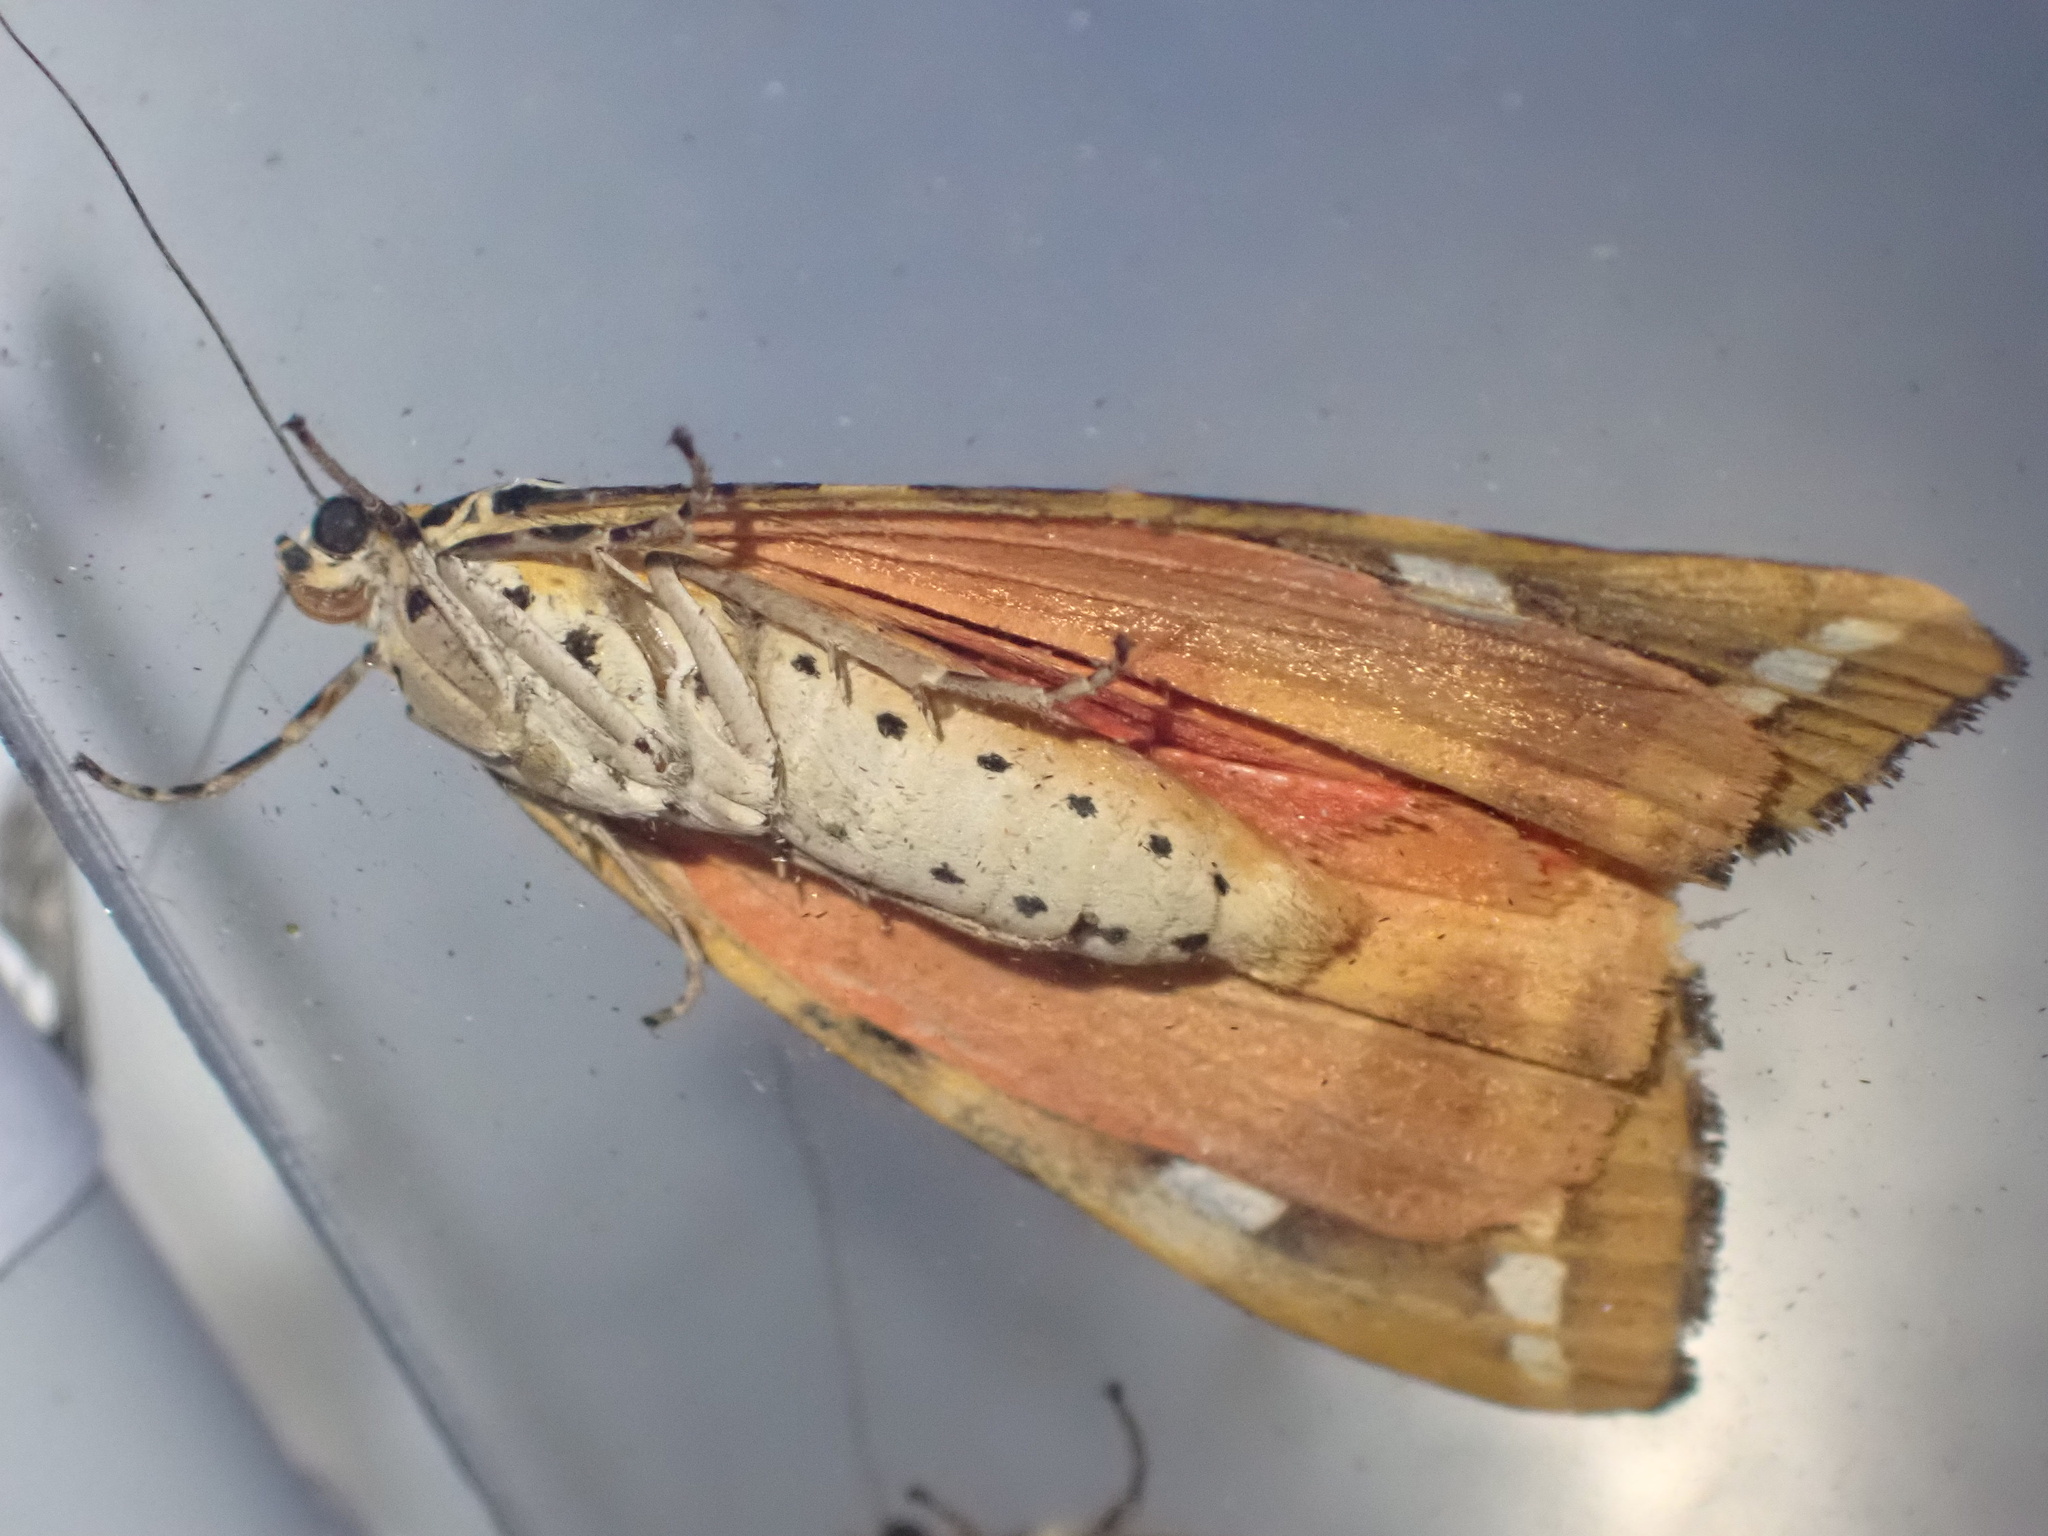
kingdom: Animalia
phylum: Arthropoda
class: Insecta
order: Lepidoptera
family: Erebidae
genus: Euplagia
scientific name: Euplagia quadripunctaria
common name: Jersey tiger
